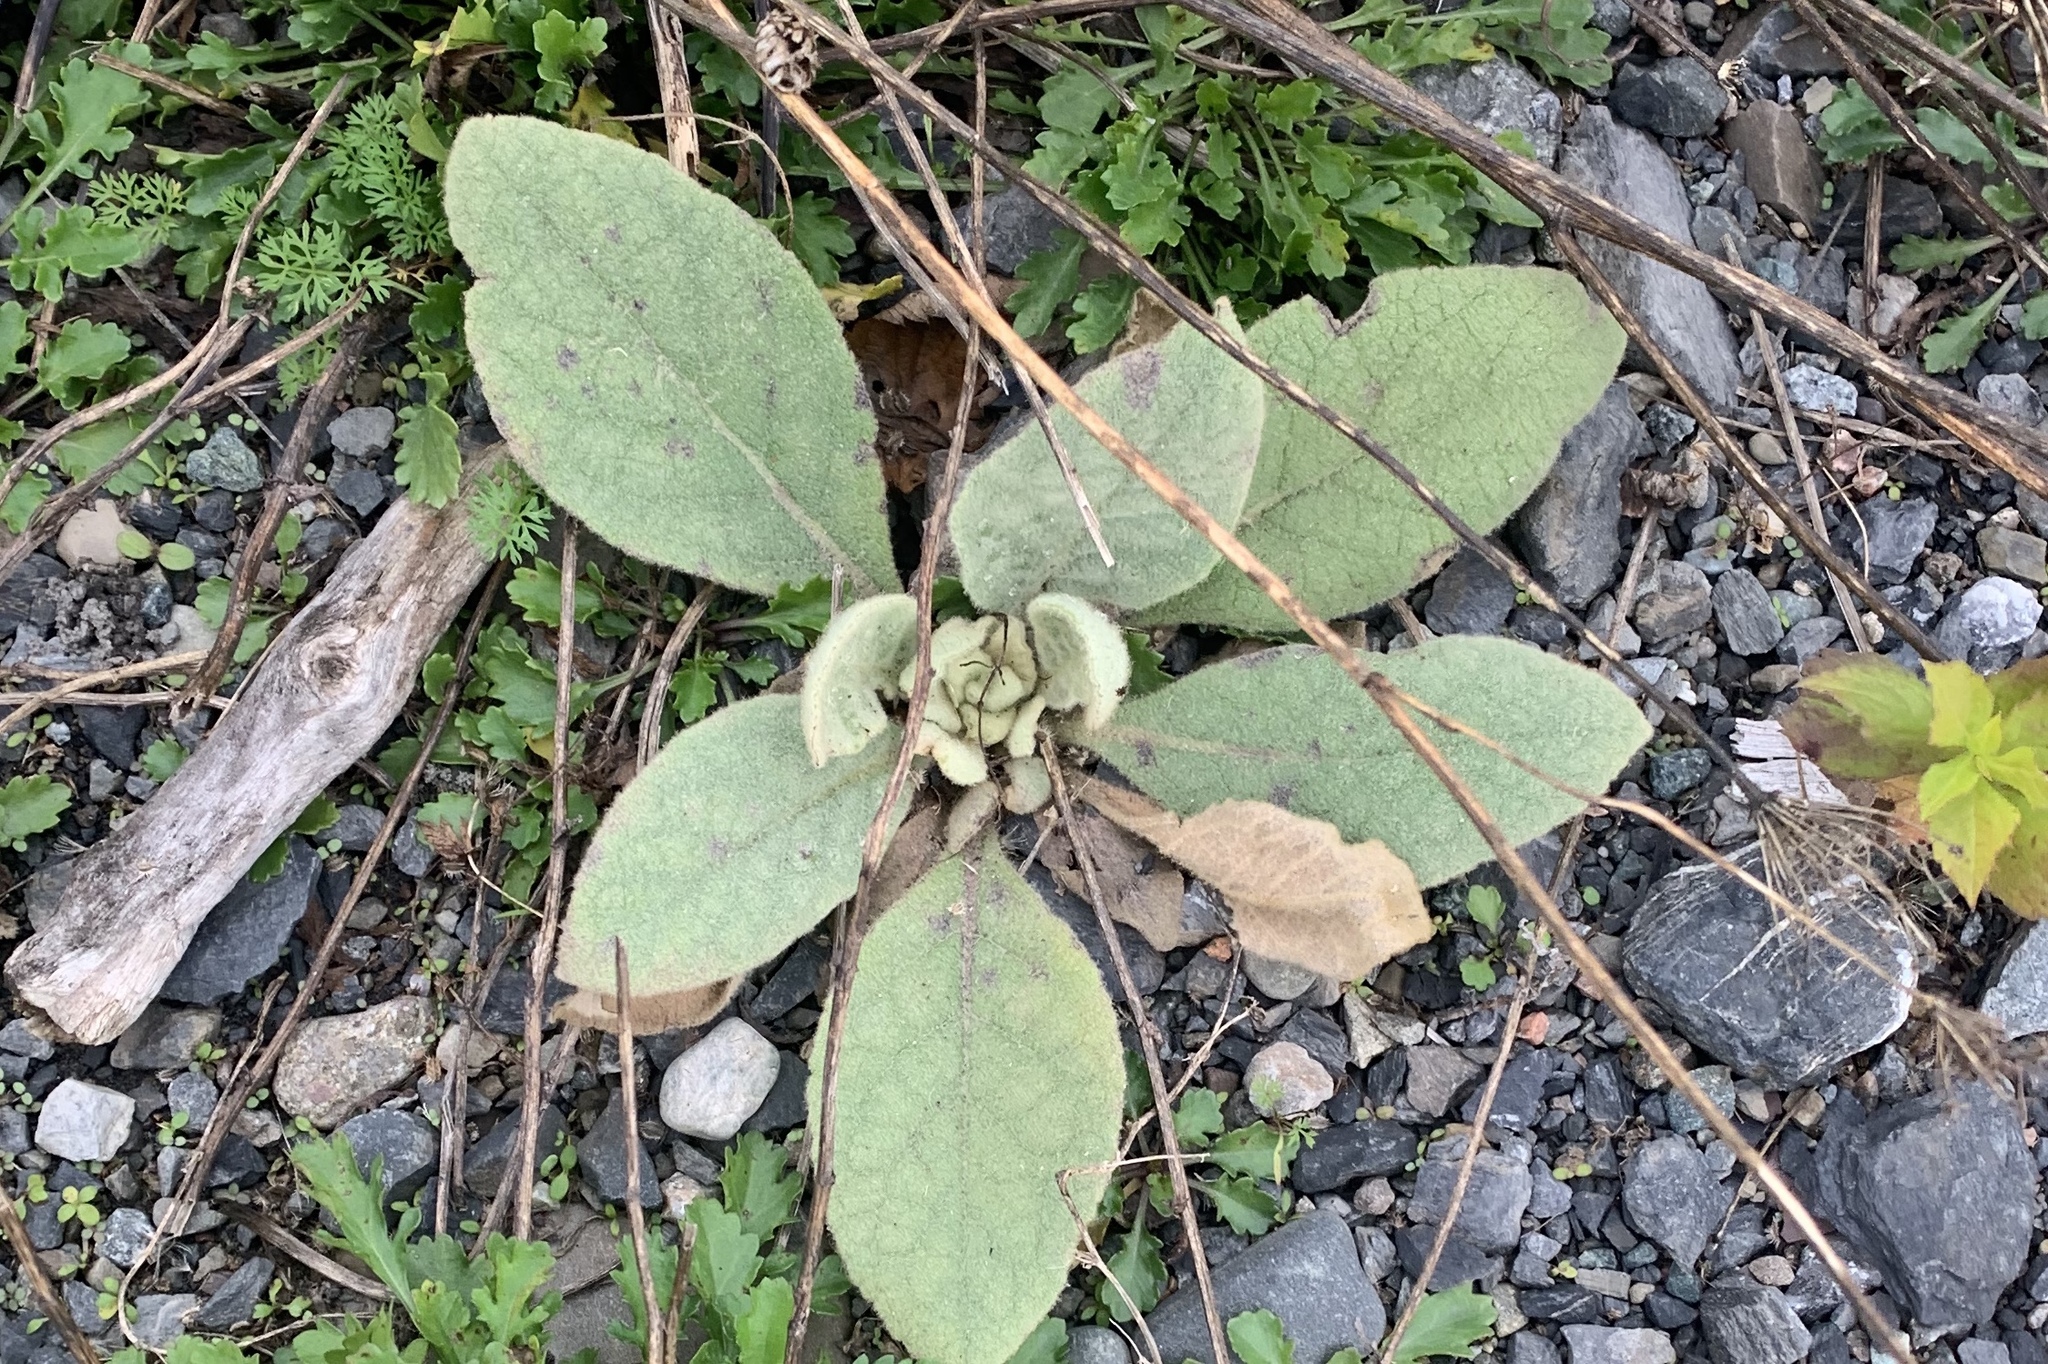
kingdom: Plantae
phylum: Tracheophyta
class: Magnoliopsida
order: Lamiales
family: Scrophulariaceae
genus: Verbascum
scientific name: Verbascum thapsus
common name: Common mullein
